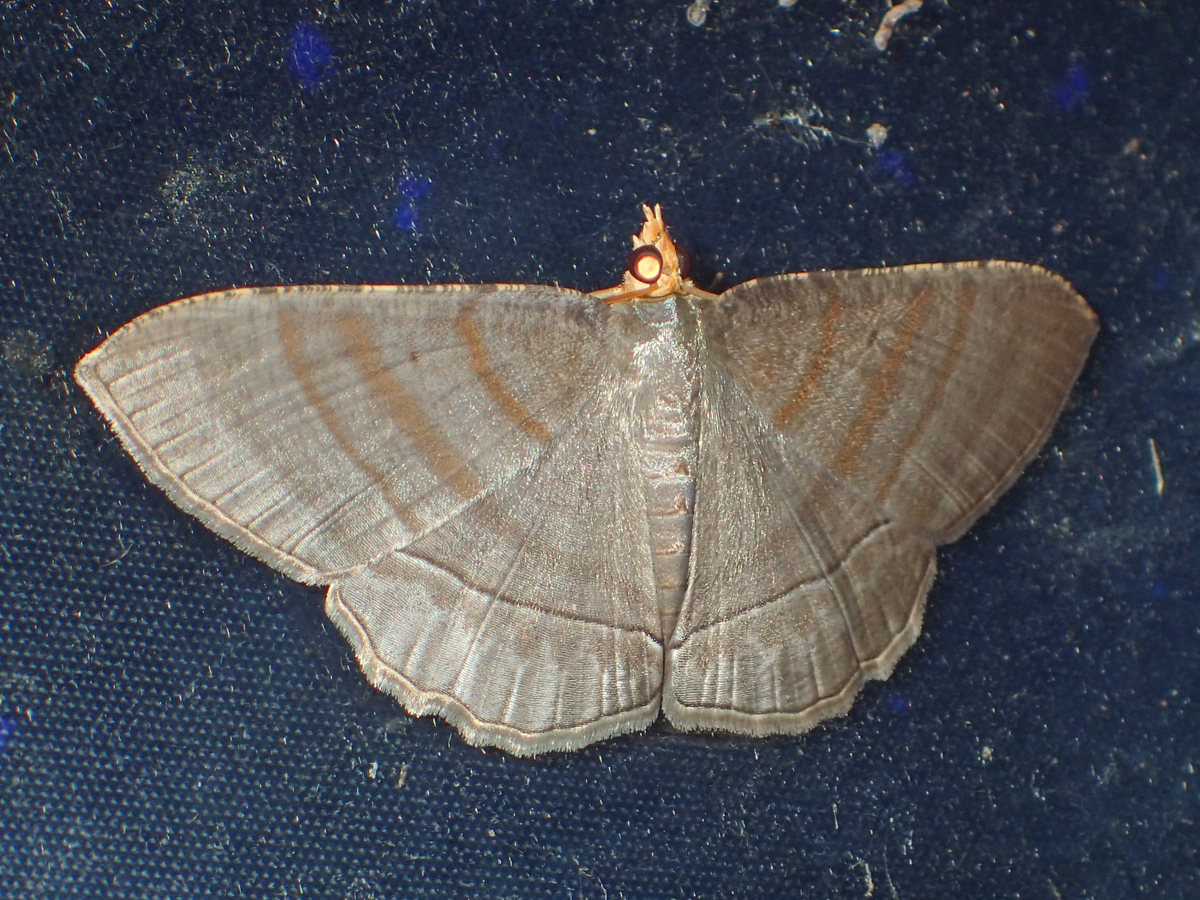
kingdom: Animalia
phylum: Arthropoda
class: Insecta
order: Lepidoptera
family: Geometridae
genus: Bulonga
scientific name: Bulonga schistacearia
